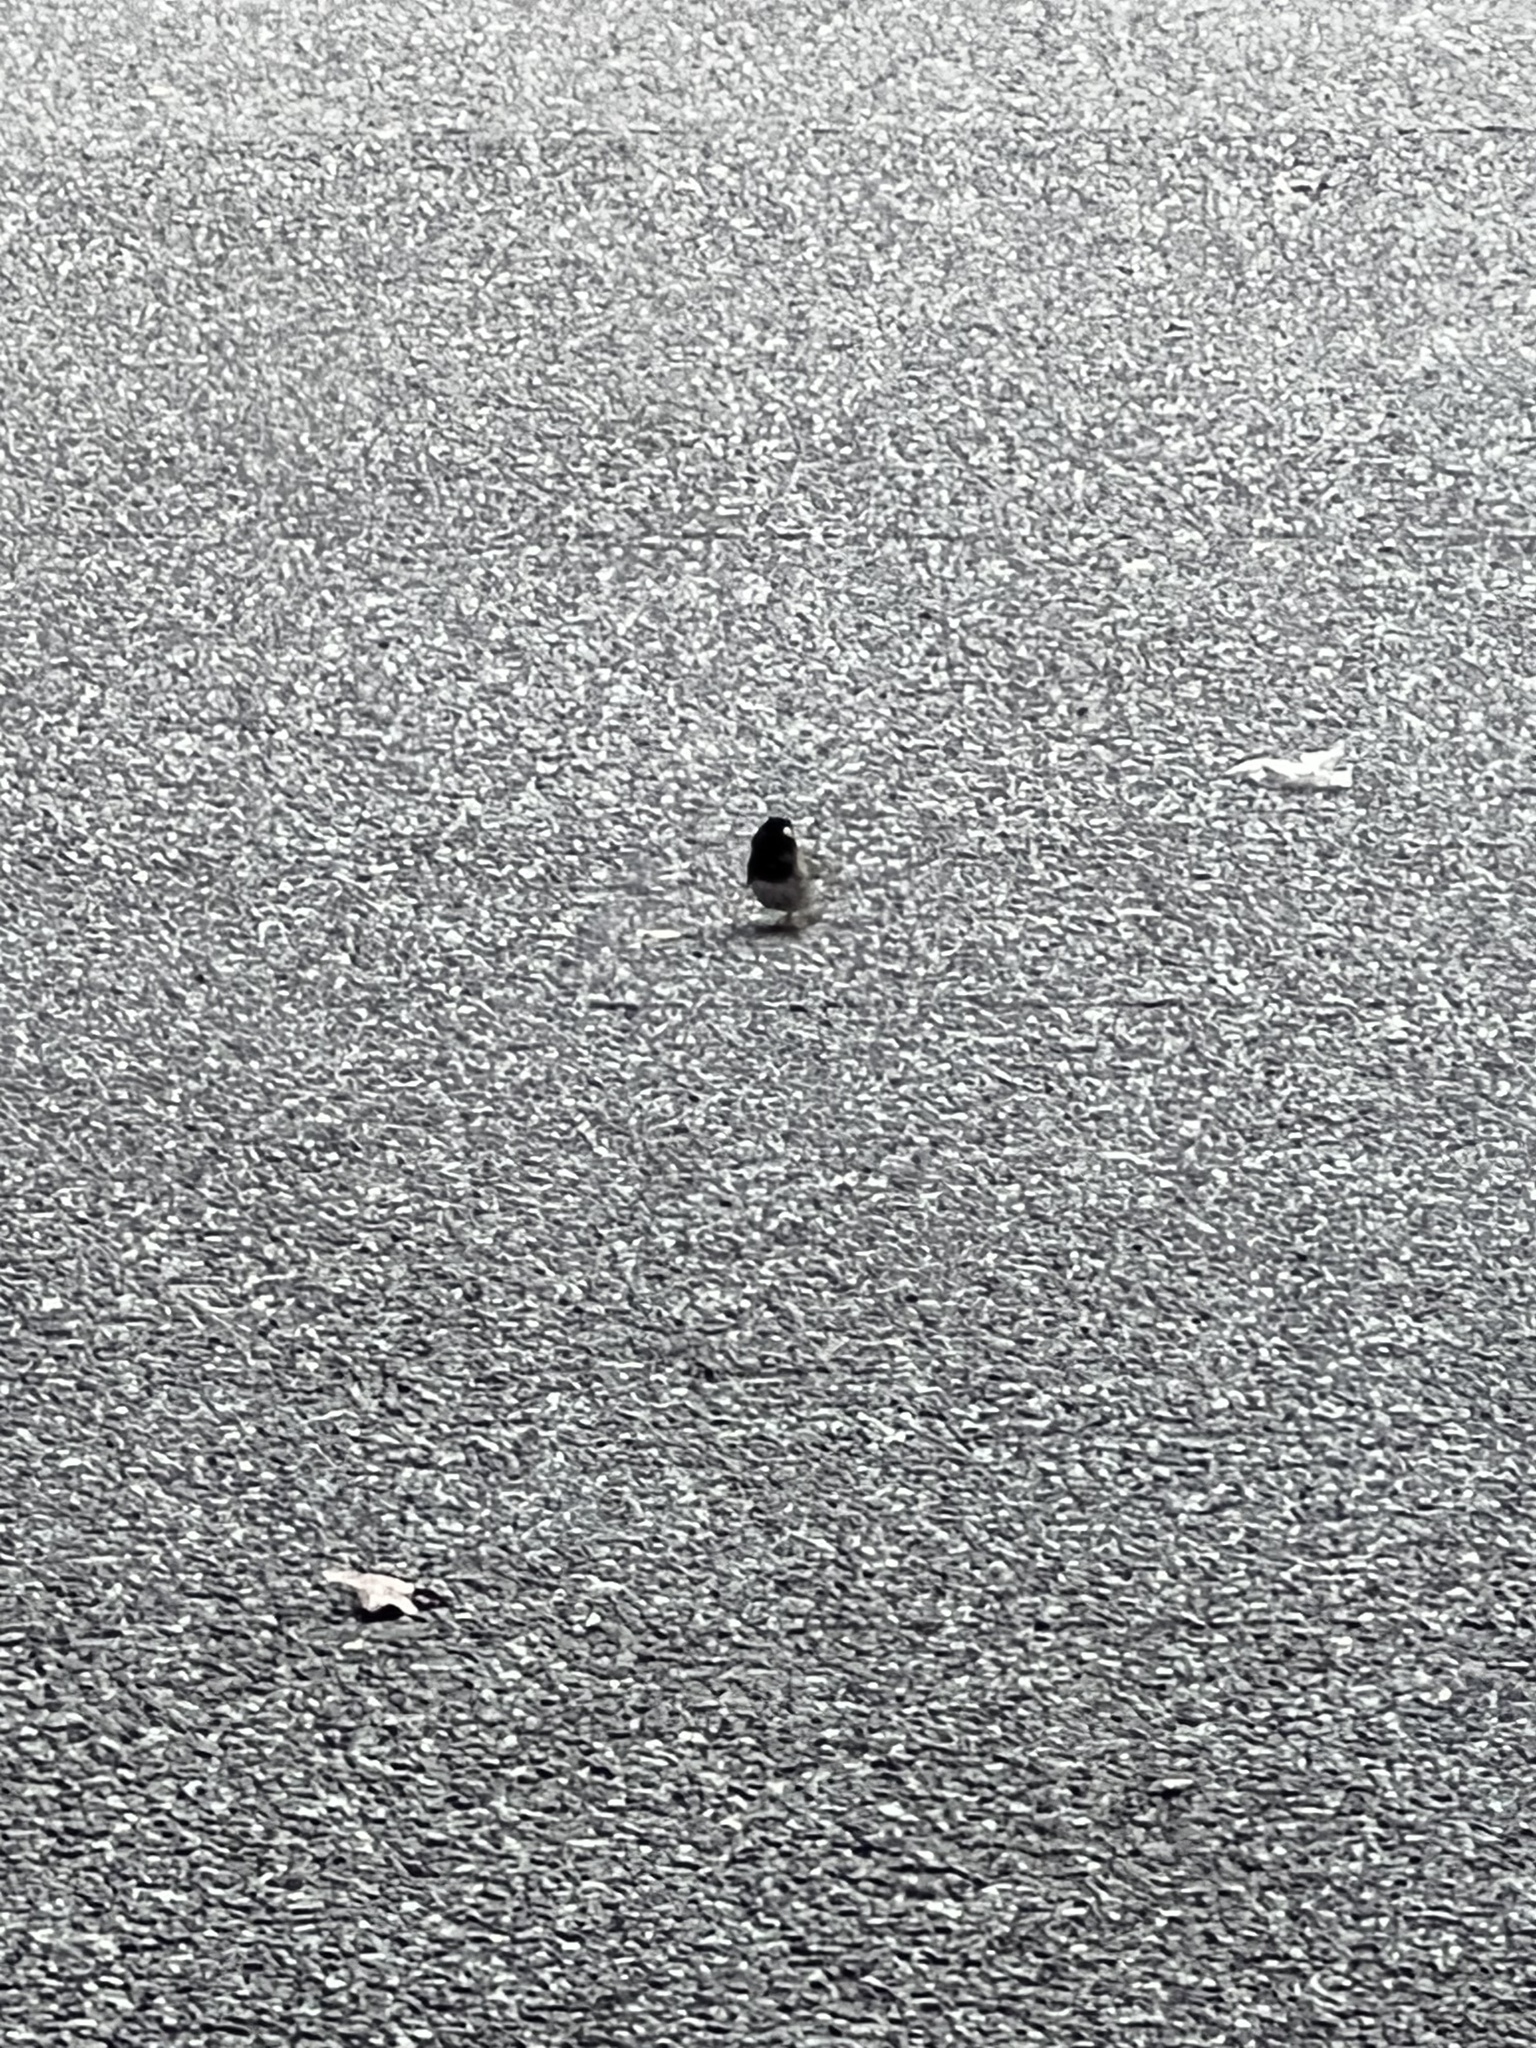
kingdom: Animalia
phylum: Chordata
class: Aves
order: Passeriformes
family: Passerellidae
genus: Junco
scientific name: Junco hyemalis
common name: Dark-eyed junco
